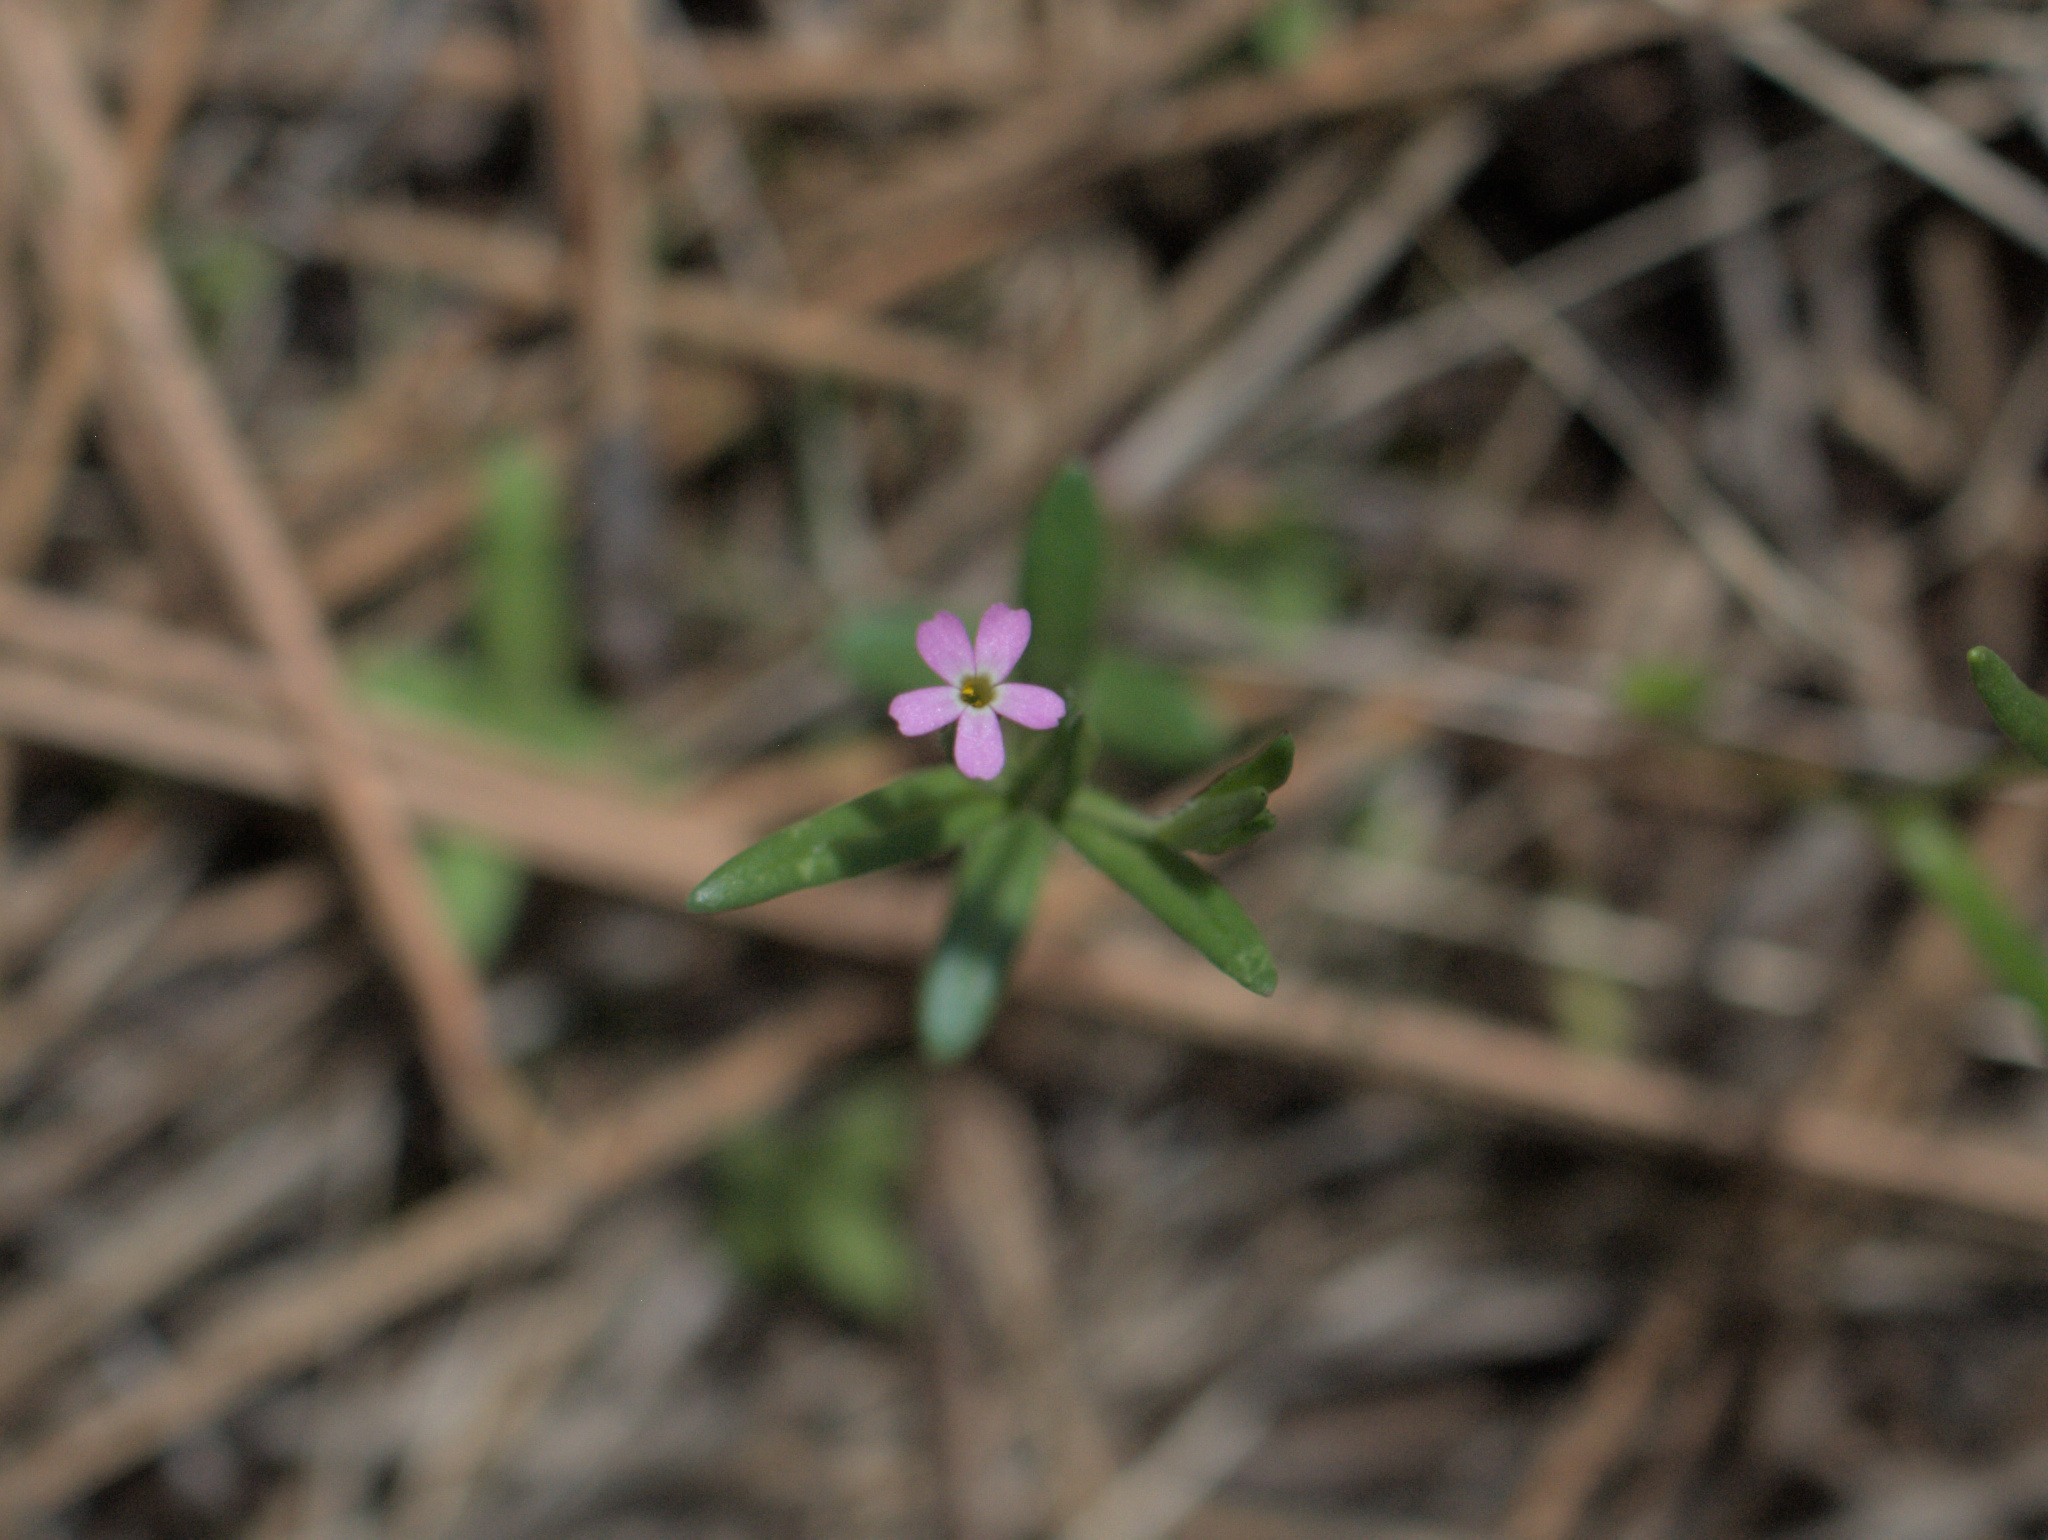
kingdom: Plantae
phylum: Tracheophyta
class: Magnoliopsida
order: Ericales
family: Polemoniaceae
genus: Phlox
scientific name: Phlox gracilis
